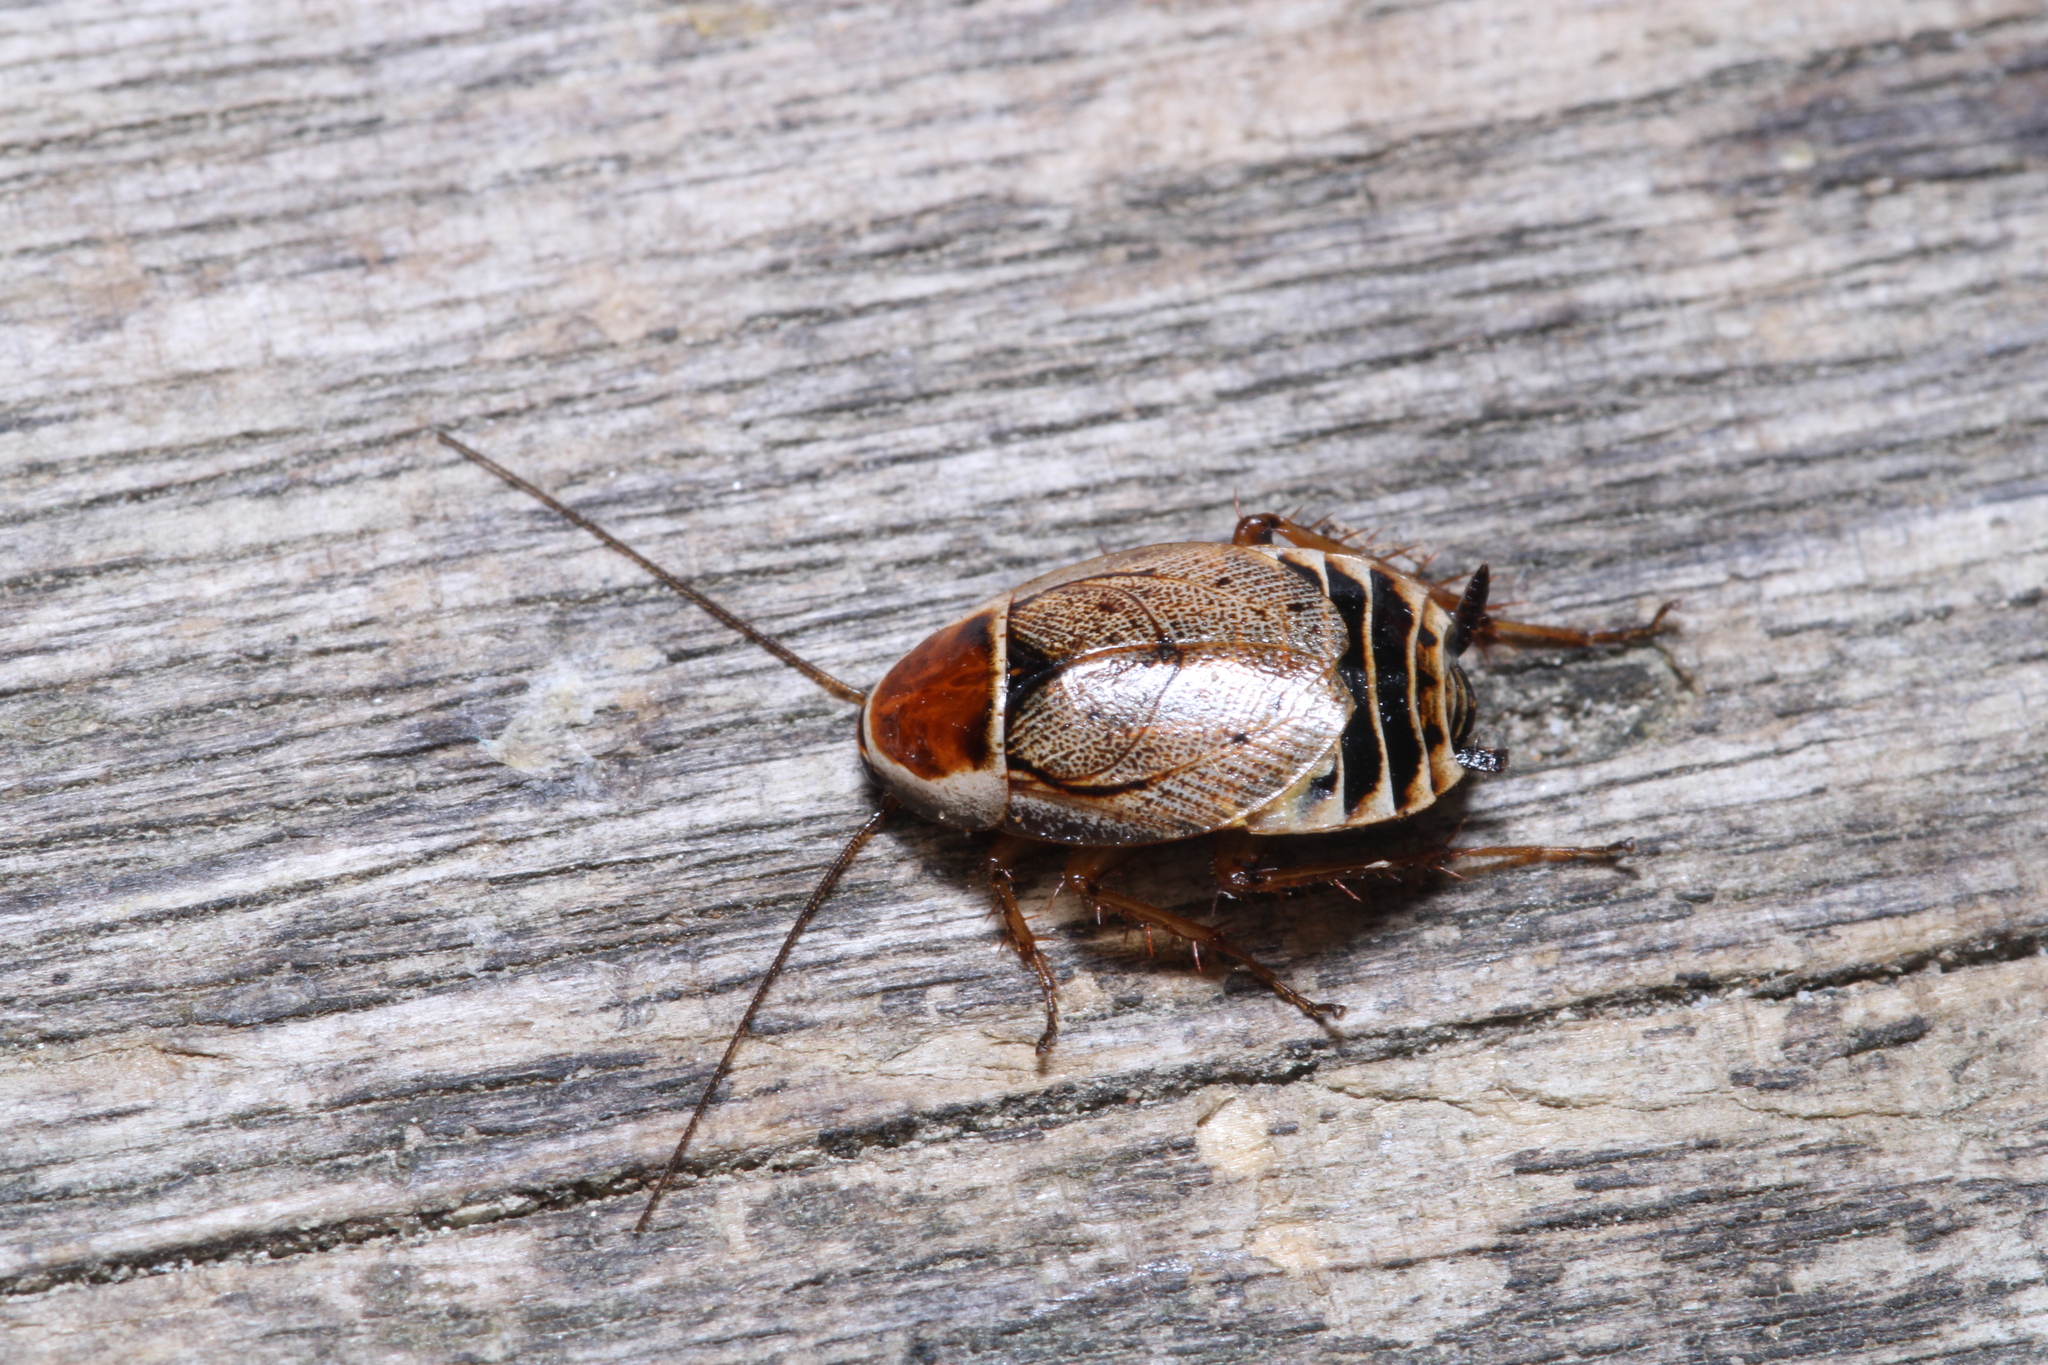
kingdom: Animalia
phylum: Arthropoda
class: Insecta
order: Blattodea
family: Ectobiidae
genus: Ectobius
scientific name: Ectobius sylvestris
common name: Forest cockroach
